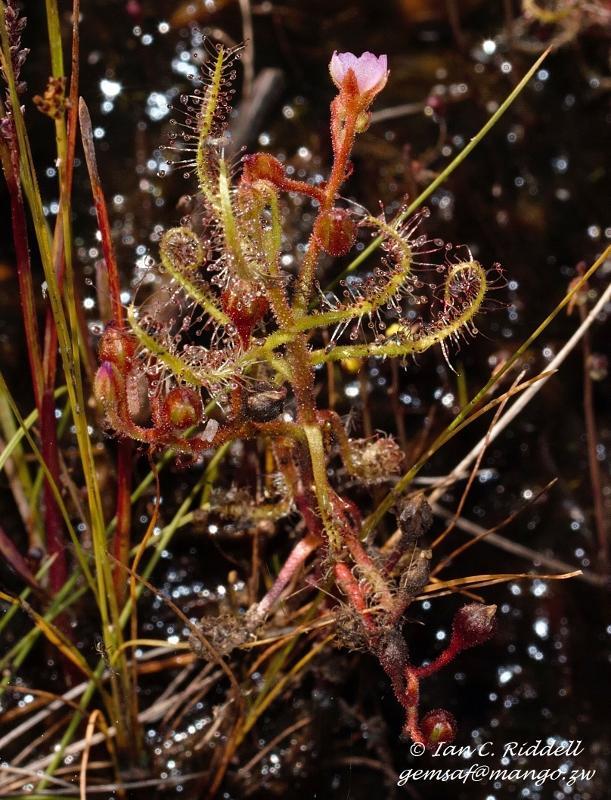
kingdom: Plantae
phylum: Tracheophyta
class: Magnoliopsida
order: Caryophyllales
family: Droseraceae
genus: Drosera
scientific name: Drosera indica
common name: Indian sundew
